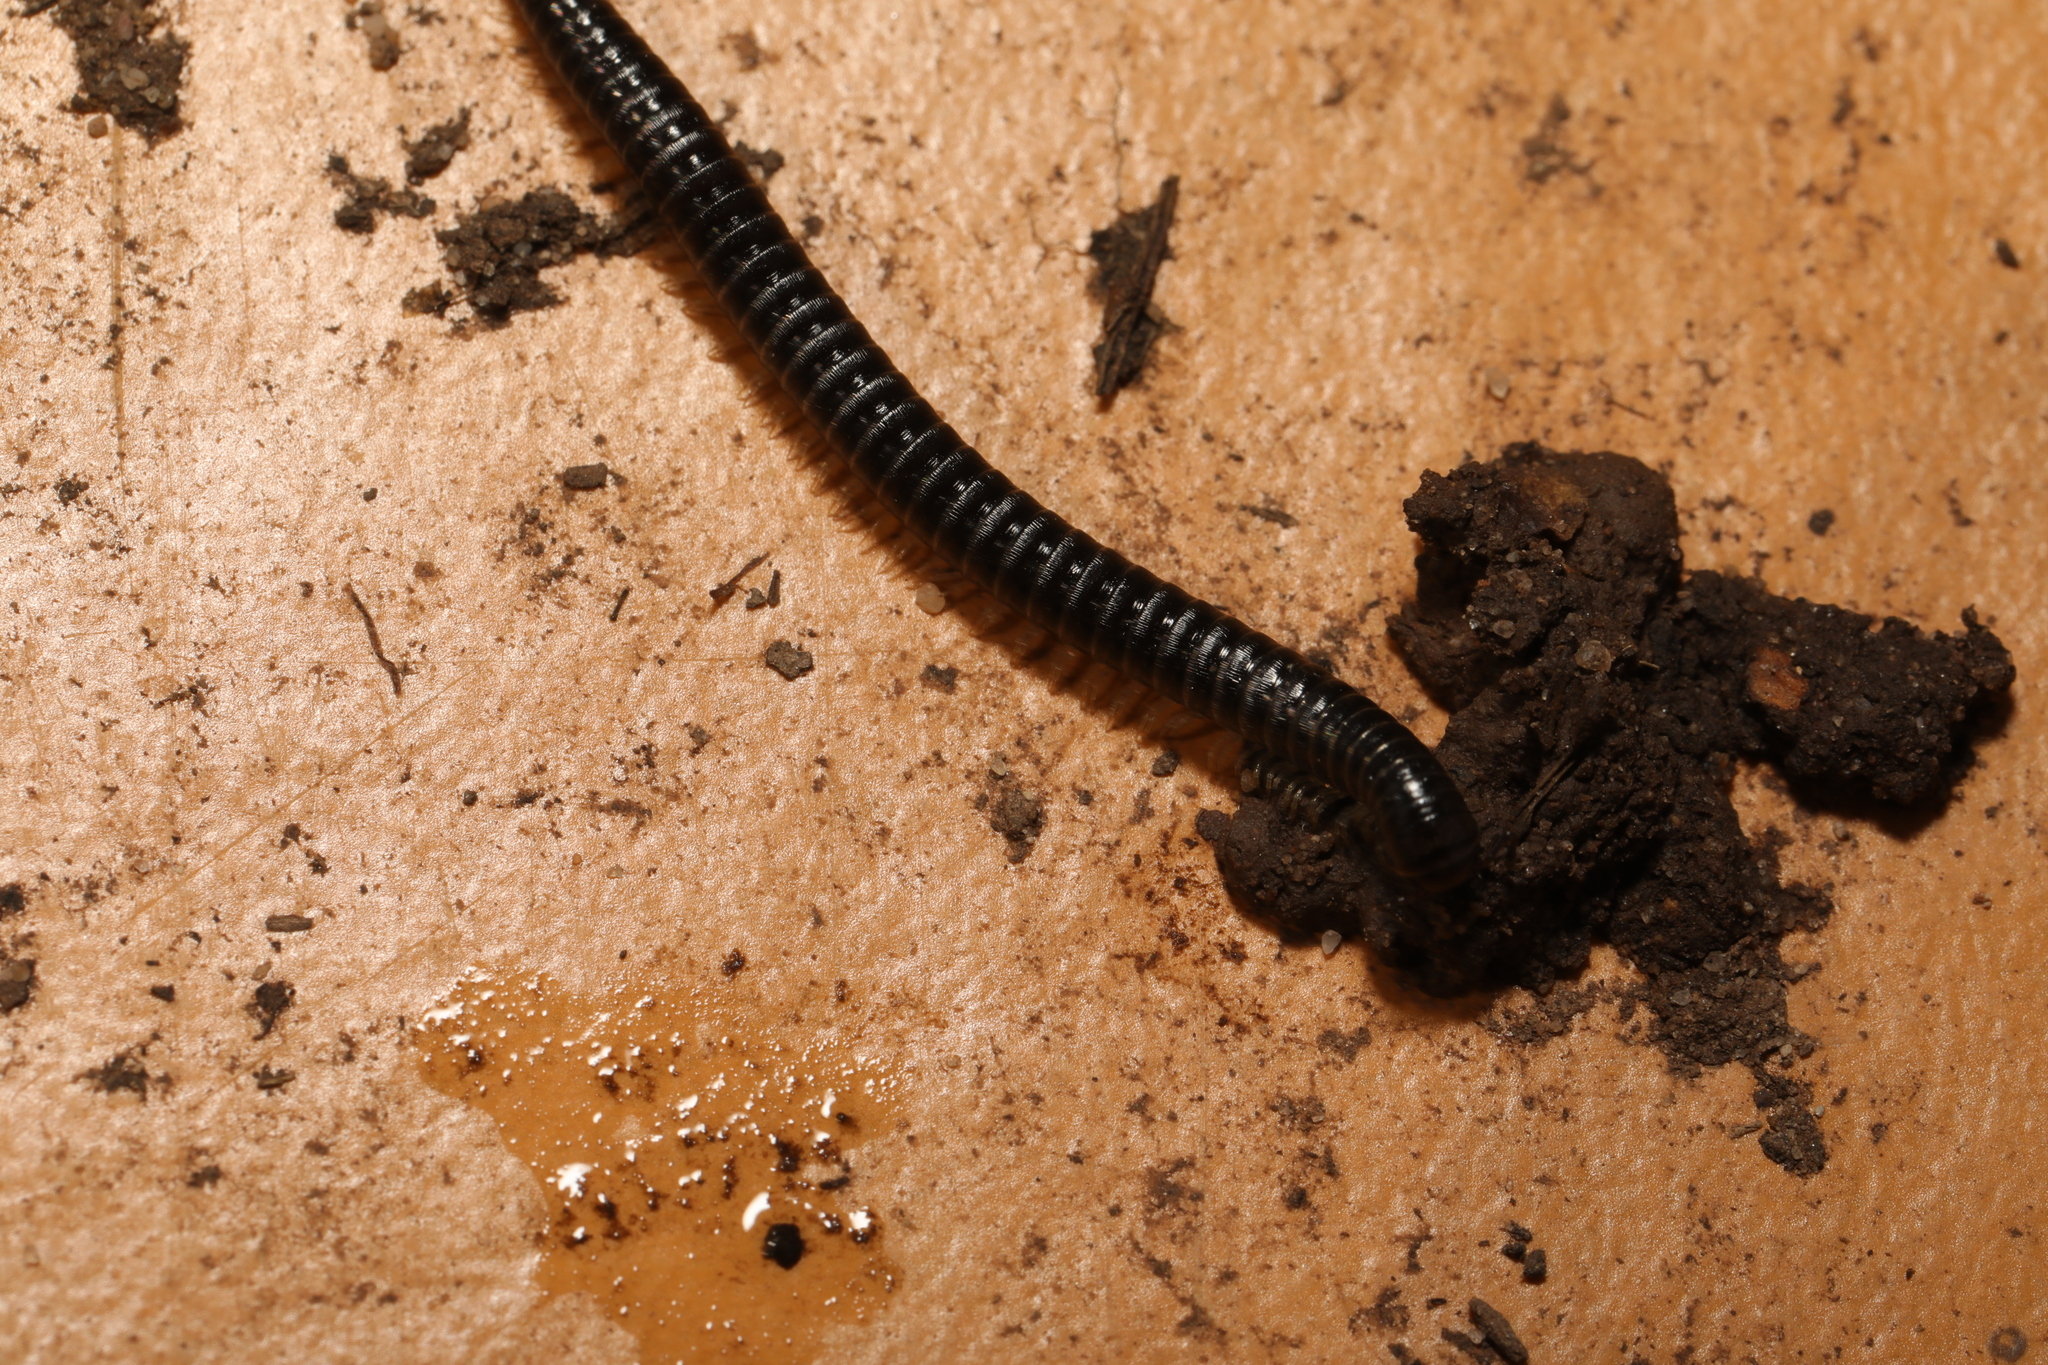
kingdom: Animalia
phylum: Arthropoda
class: Diplopoda
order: Julida
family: Julidae
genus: Tachypodoiulus
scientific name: Tachypodoiulus niger
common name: White-legged snake millipede
